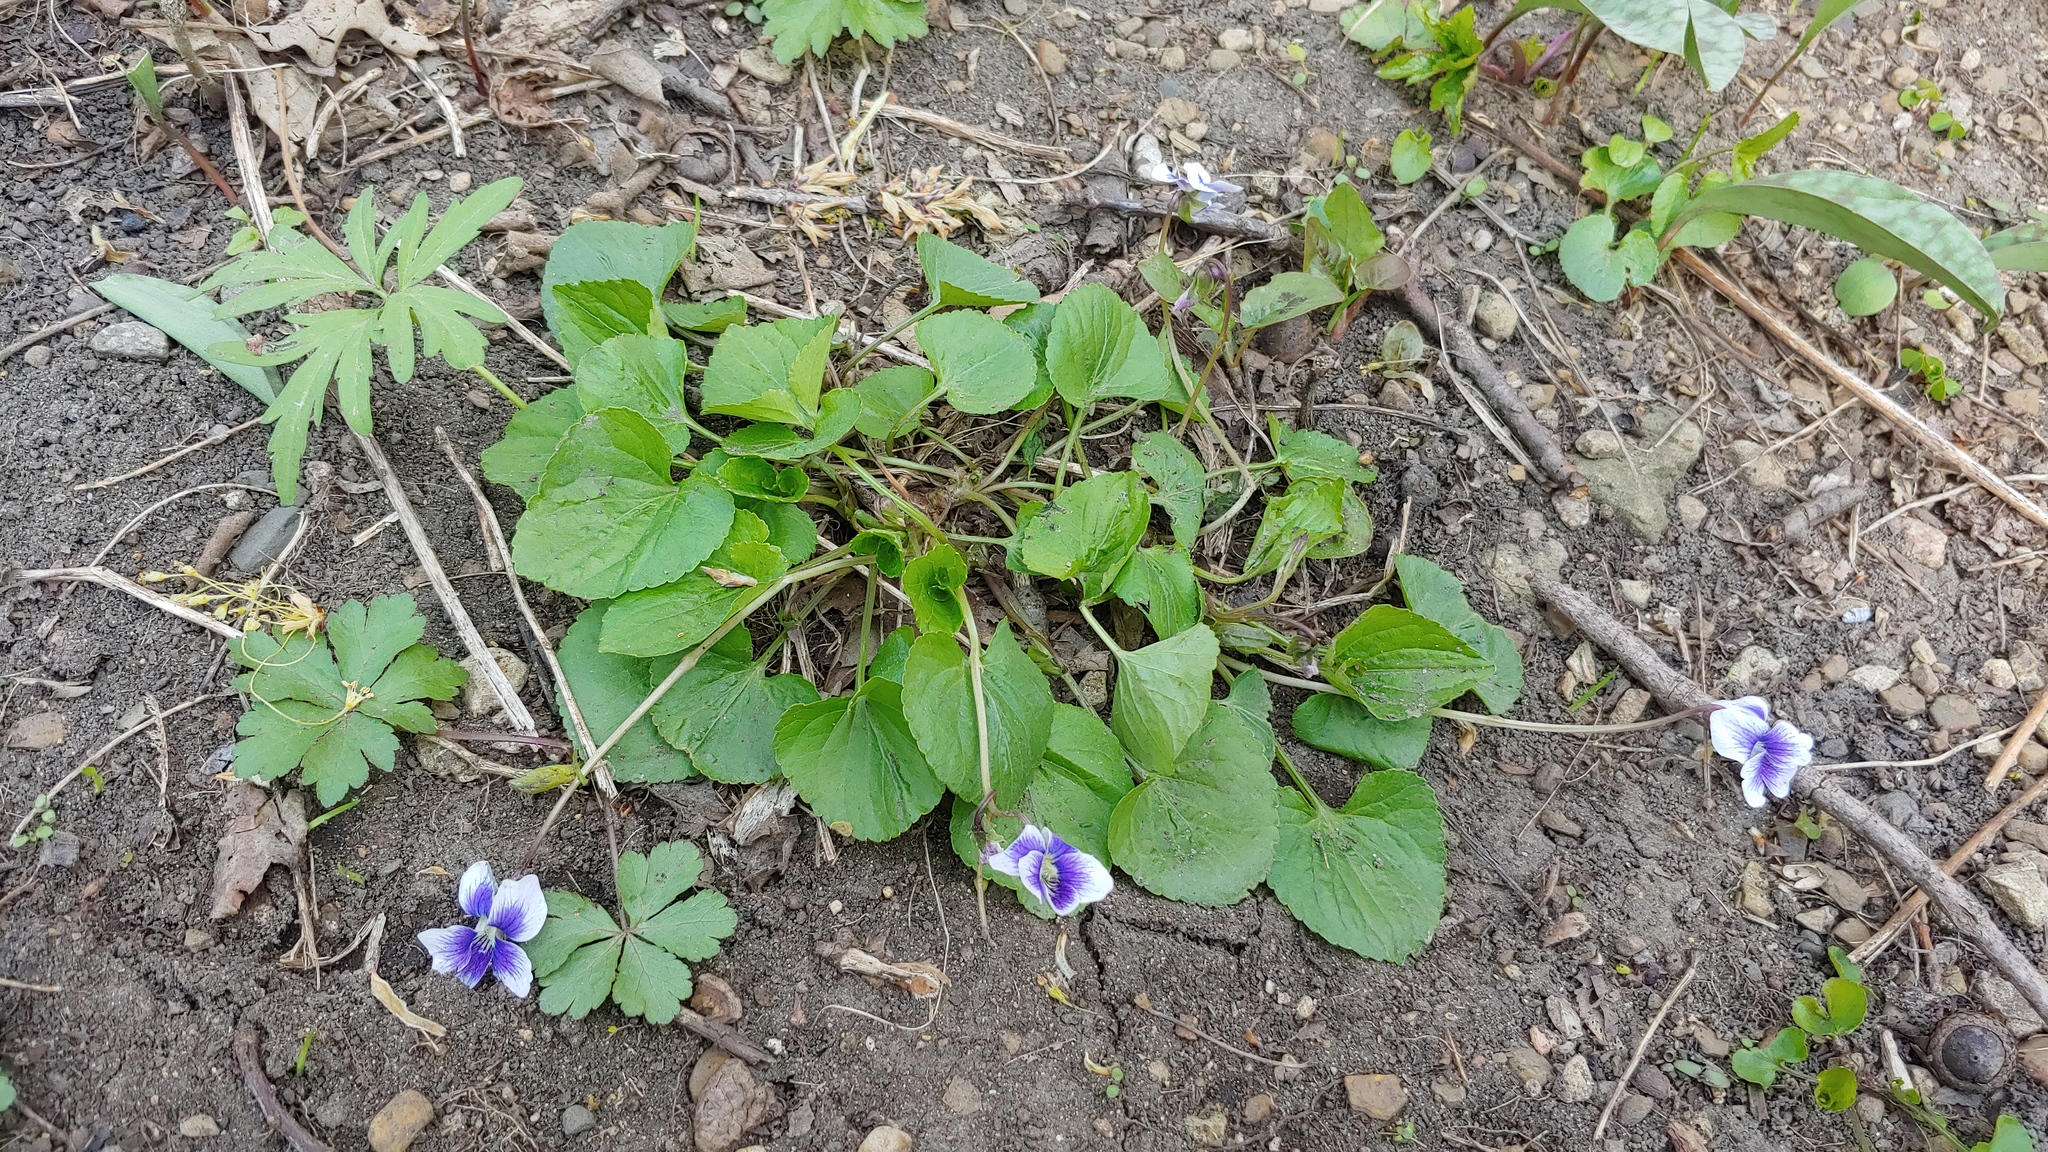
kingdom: Plantae
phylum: Tracheophyta
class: Magnoliopsida
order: Malpighiales
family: Violaceae
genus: Viola
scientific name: Viola sororia
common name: Dooryard violet
